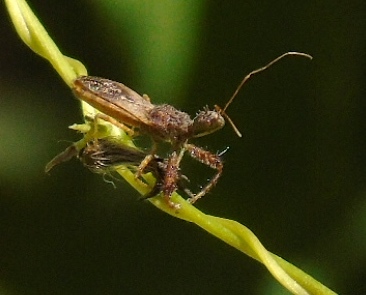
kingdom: Animalia
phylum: Arthropoda
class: Insecta
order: Hemiptera
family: Reduviidae
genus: Sinea
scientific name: Sinea
